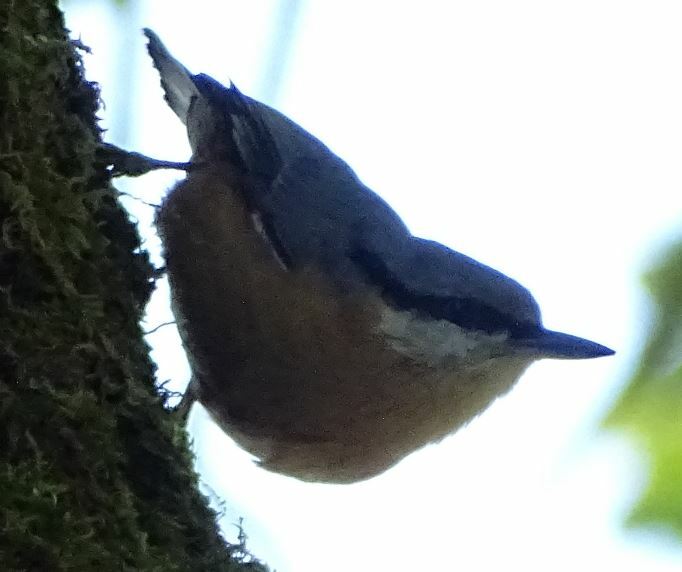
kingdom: Animalia
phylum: Chordata
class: Aves
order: Passeriformes
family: Sittidae
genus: Sitta
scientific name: Sitta europaea
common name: Eurasian nuthatch
